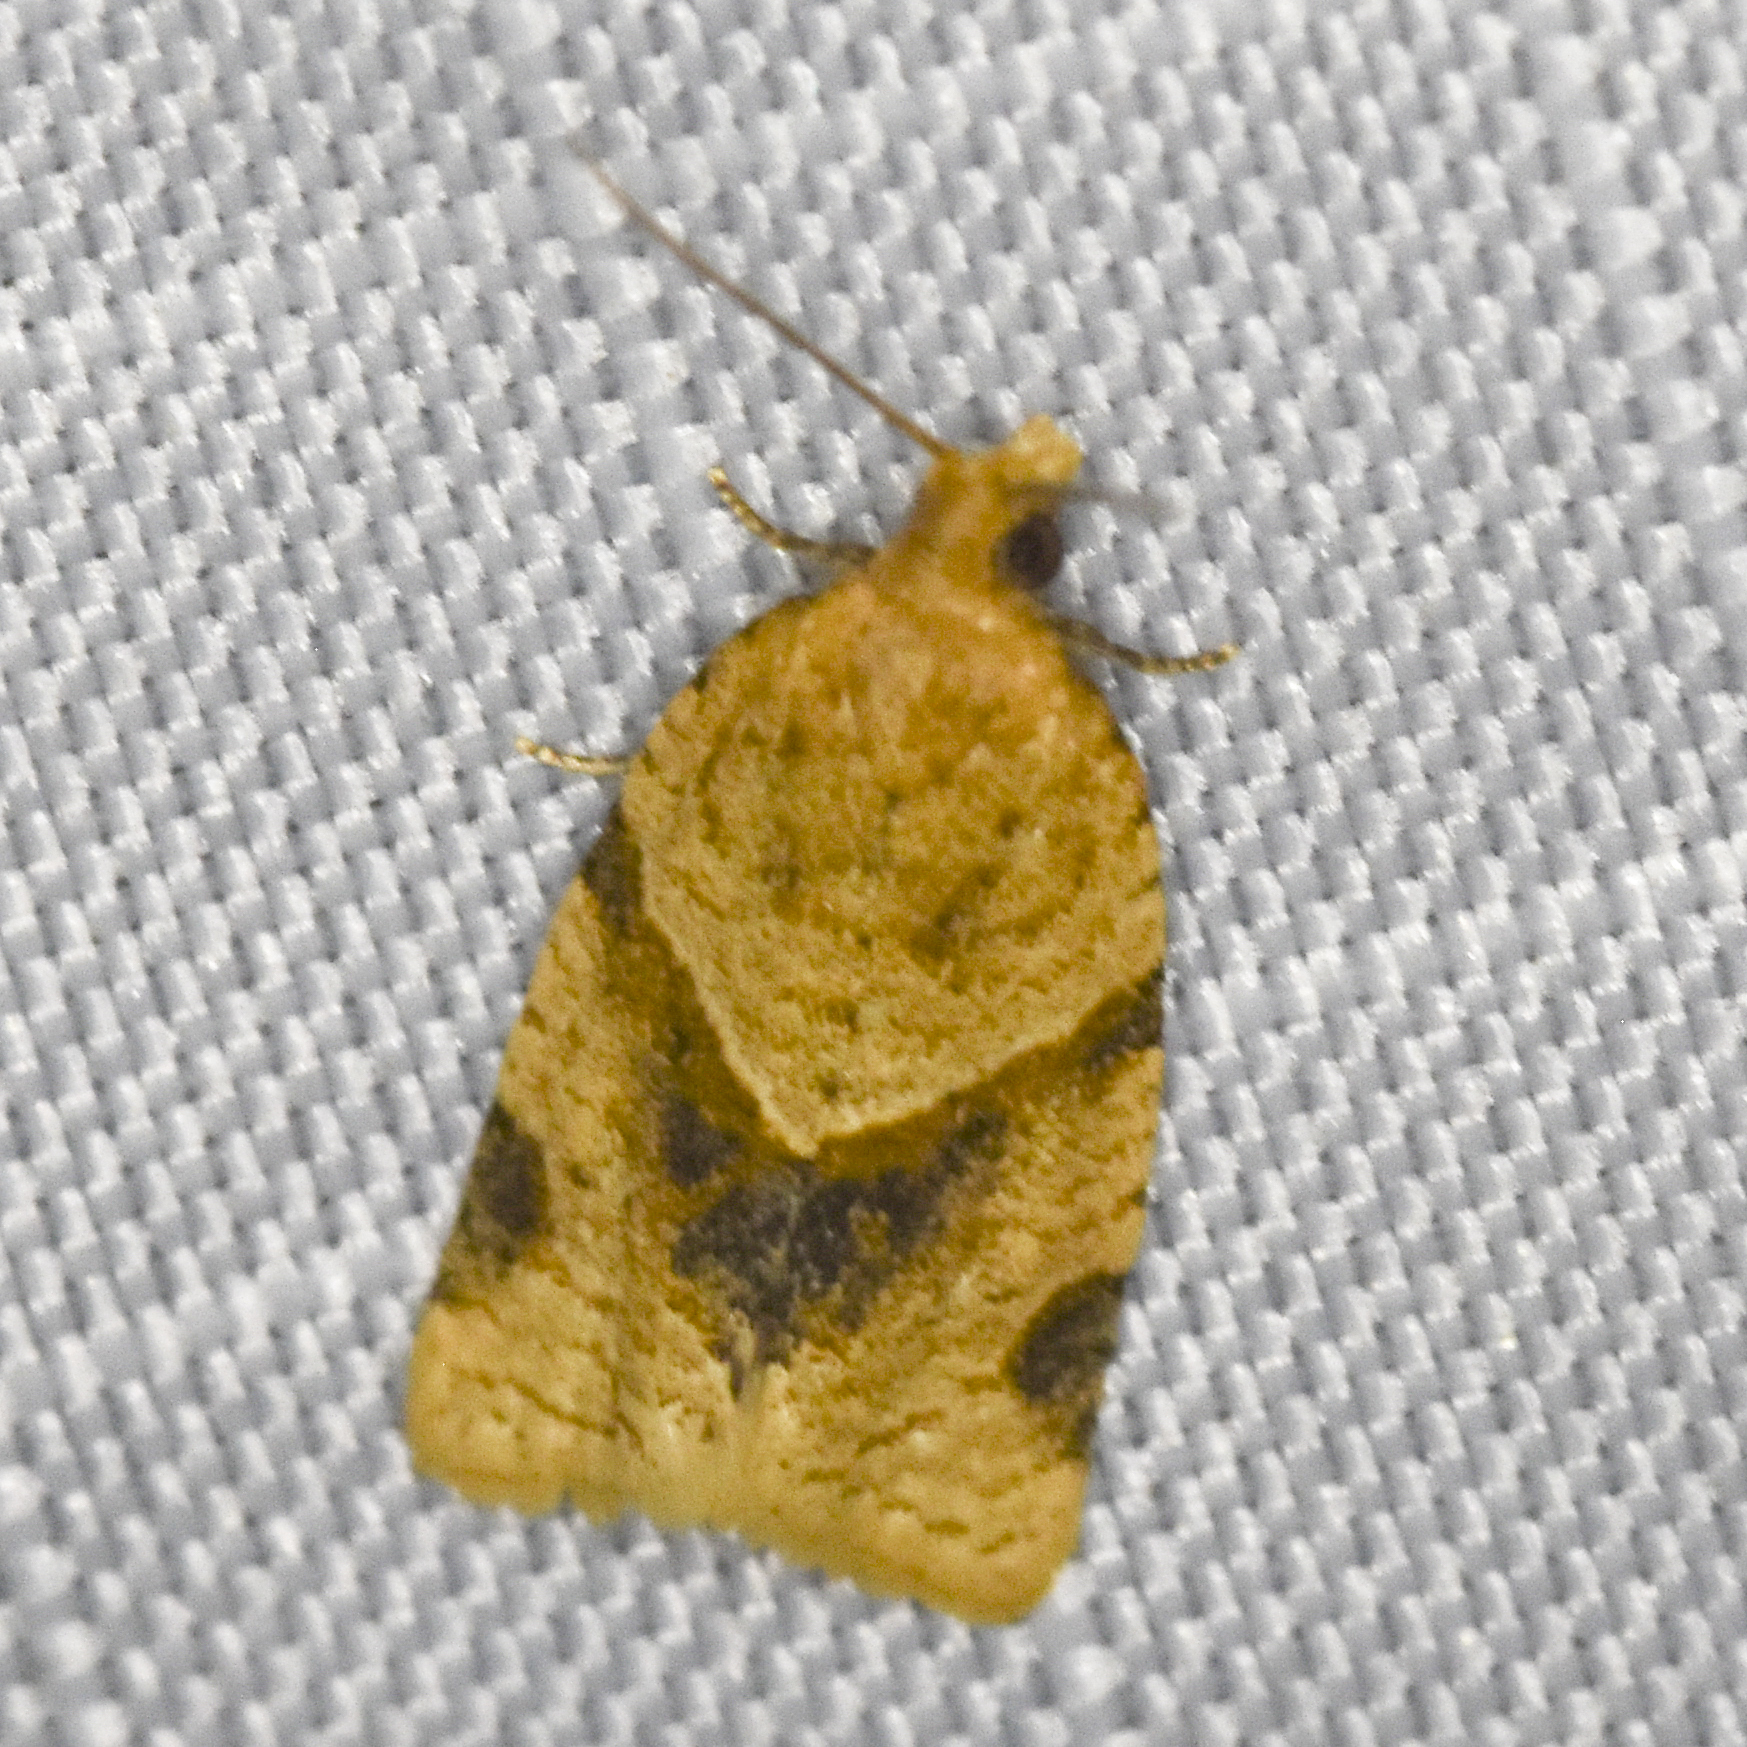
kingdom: Animalia
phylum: Arthropoda
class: Insecta
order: Lepidoptera
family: Tortricidae
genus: Clepsis
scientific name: Clepsis peritana
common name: Garden tortrix
